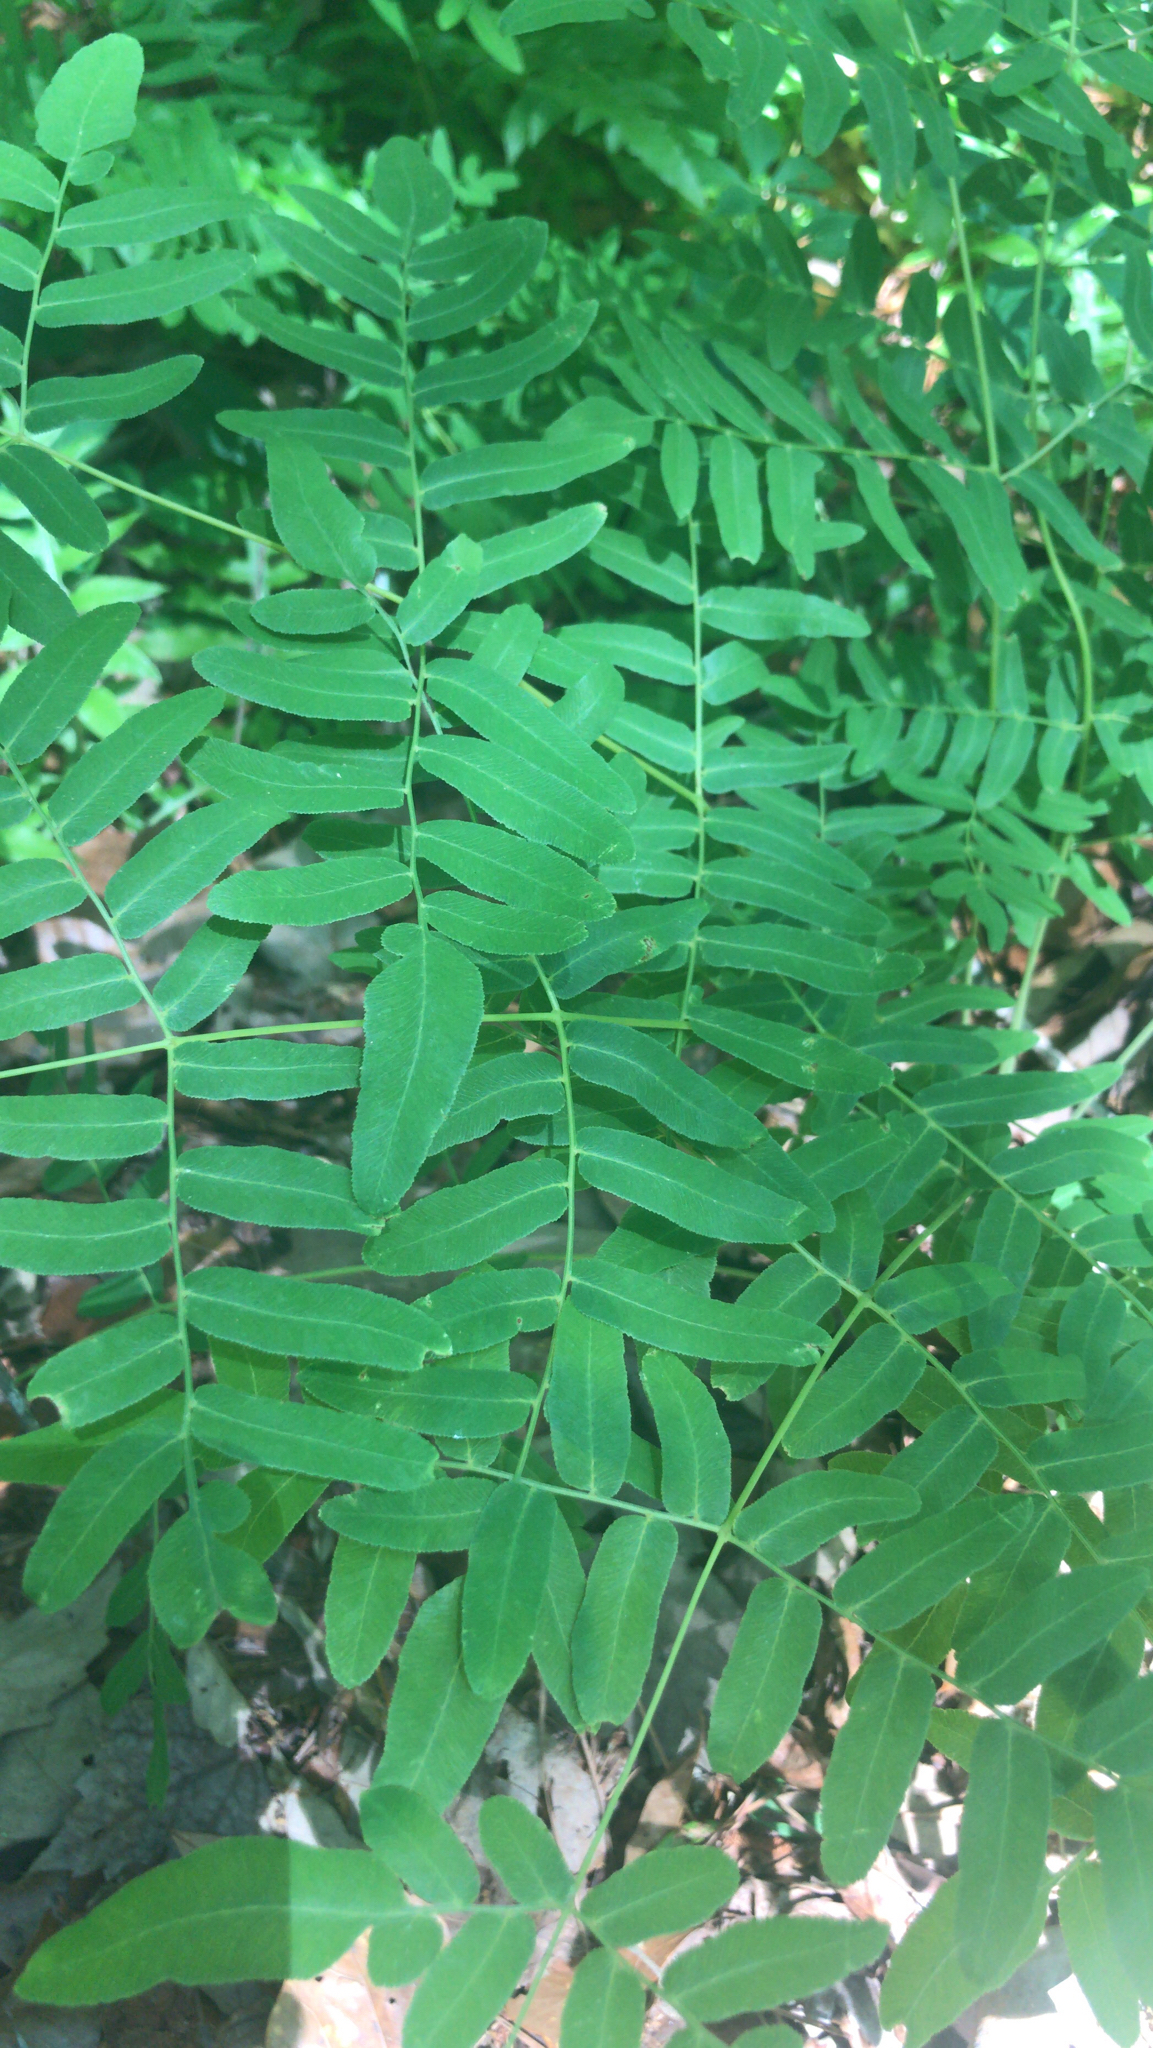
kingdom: Plantae
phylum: Tracheophyta
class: Polypodiopsida
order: Osmundales
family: Osmundaceae
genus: Osmunda
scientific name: Osmunda spectabilis
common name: American royal fern
